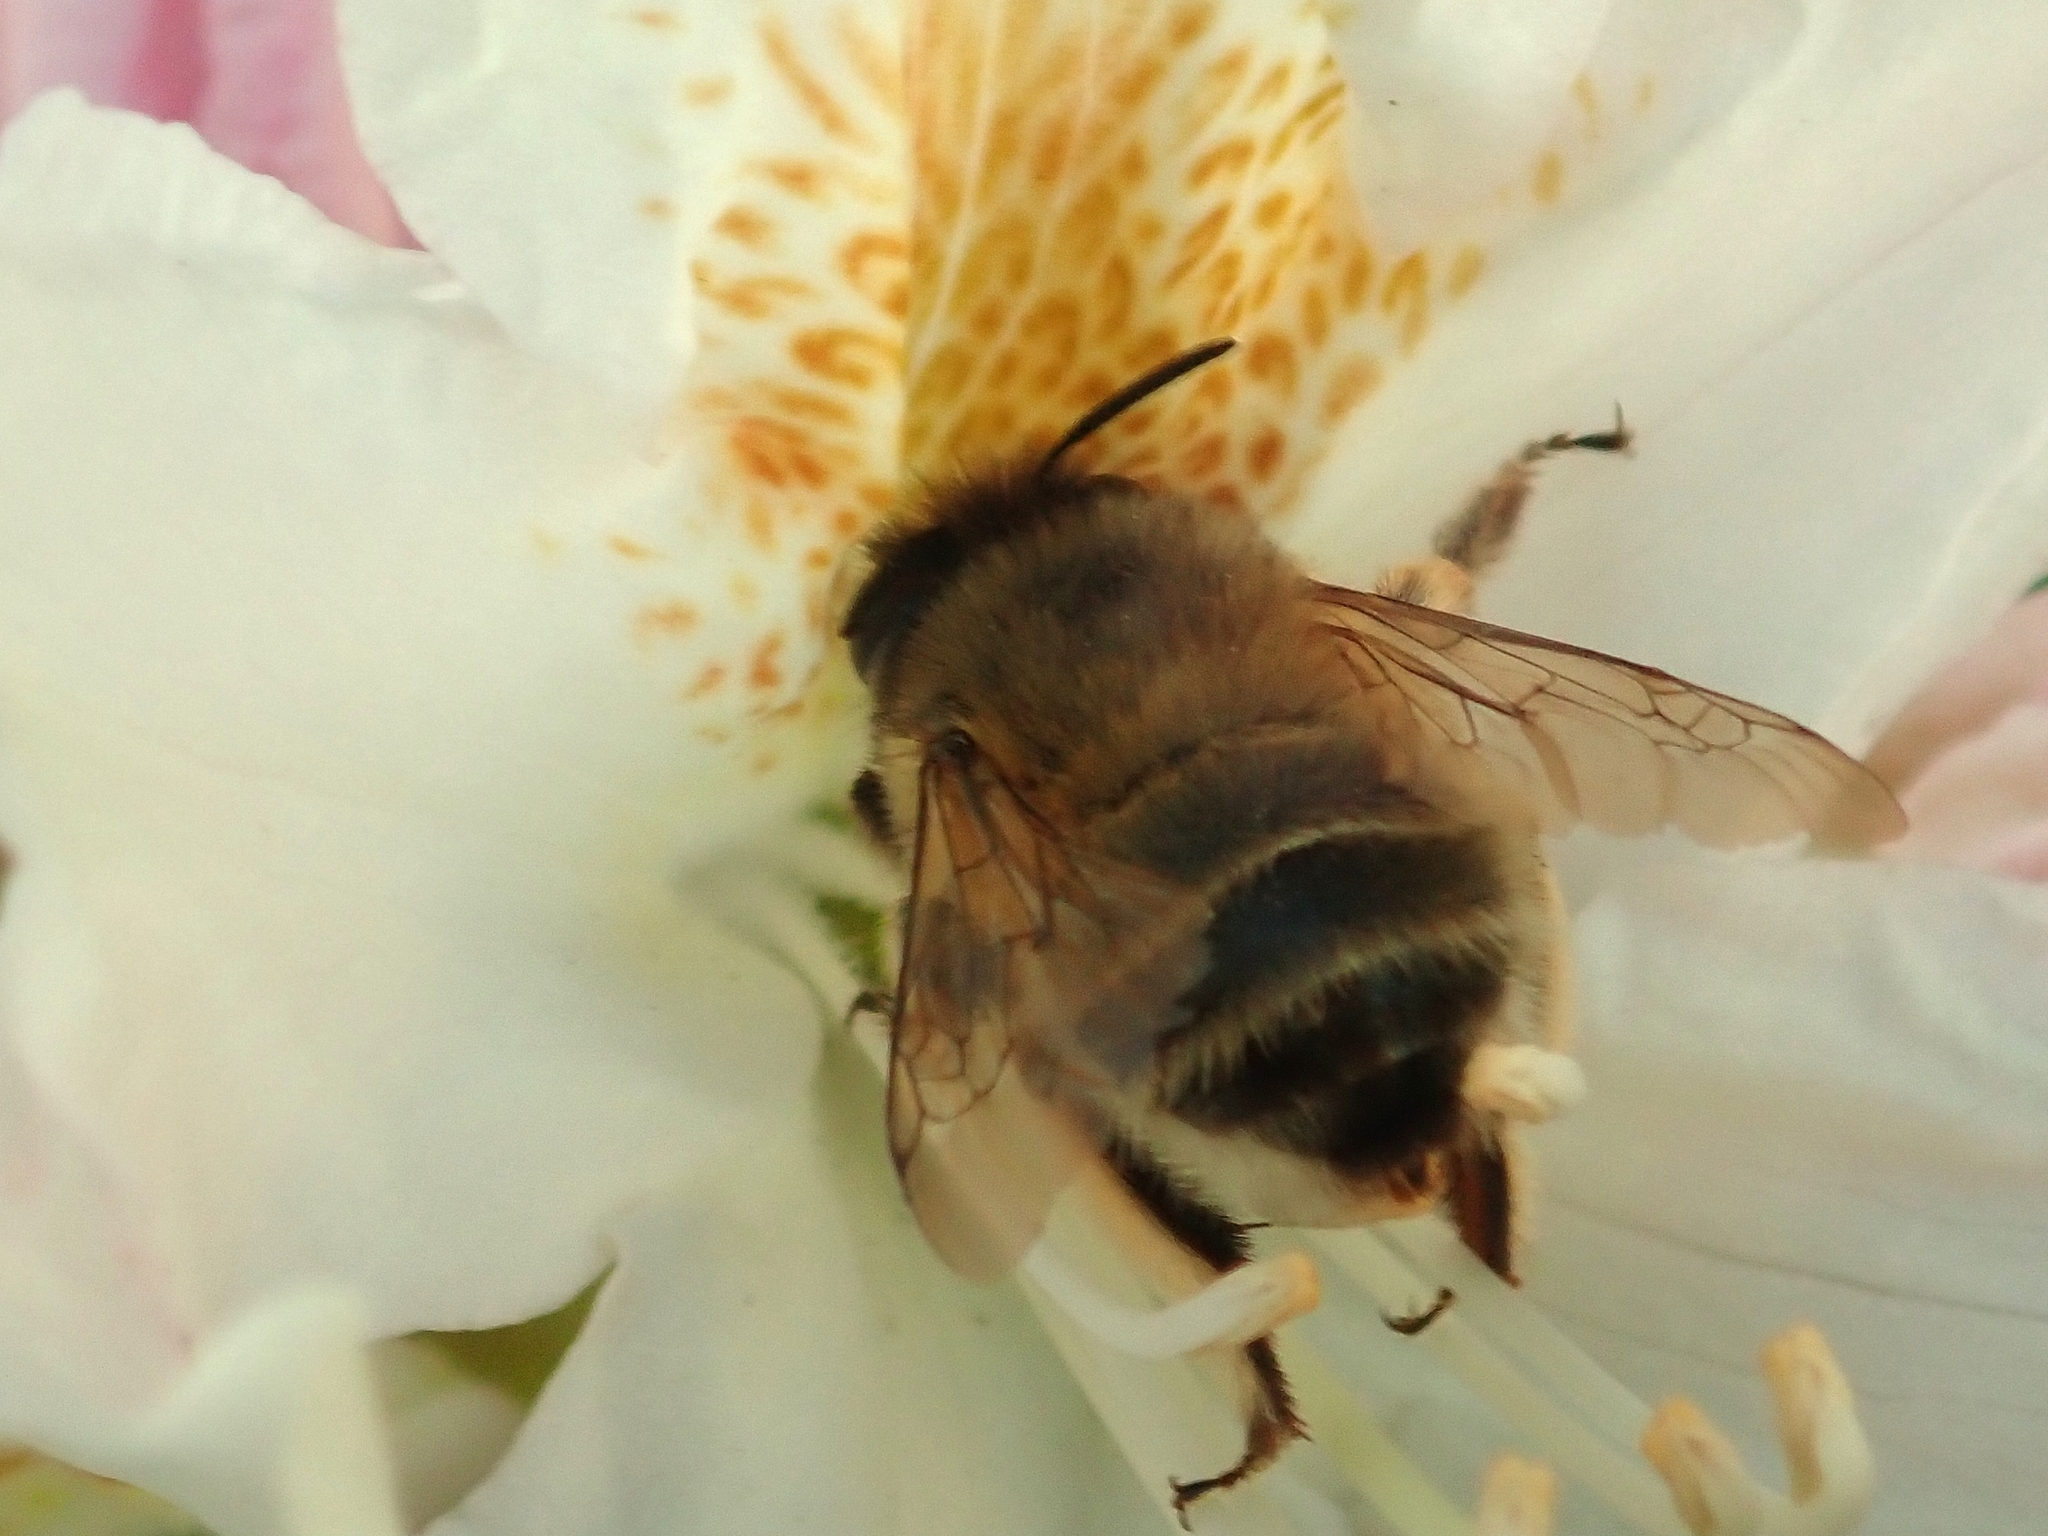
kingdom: Animalia
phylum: Arthropoda
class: Insecta
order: Hymenoptera
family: Apidae
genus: Anthophora
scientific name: Anthophora plumipes
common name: Hairy-footed flower bee
